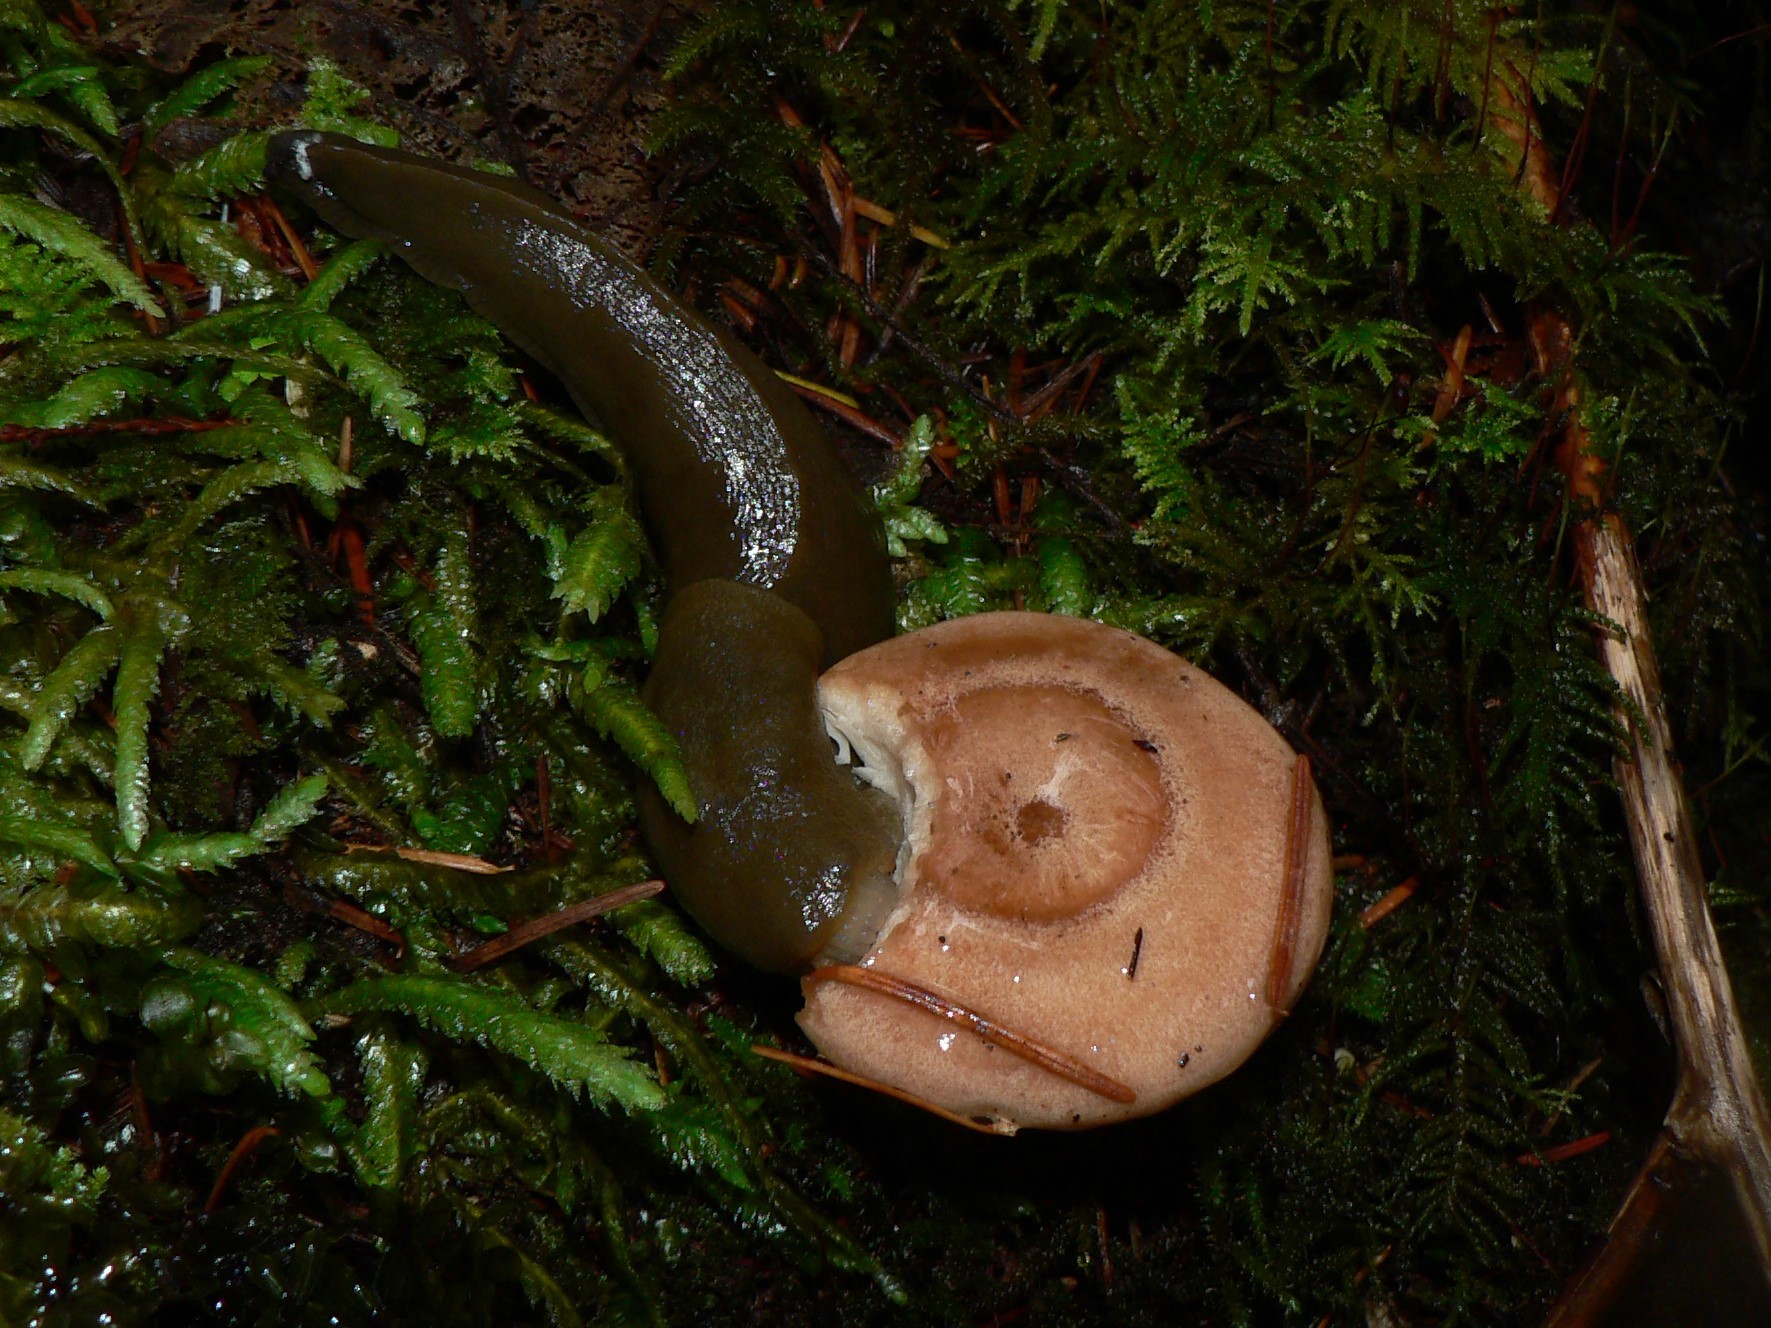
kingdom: Animalia
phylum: Mollusca
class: Gastropoda
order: Stylommatophora
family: Ariolimacidae
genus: Ariolimax
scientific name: Ariolimax columbianus
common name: Pacific banana slug
